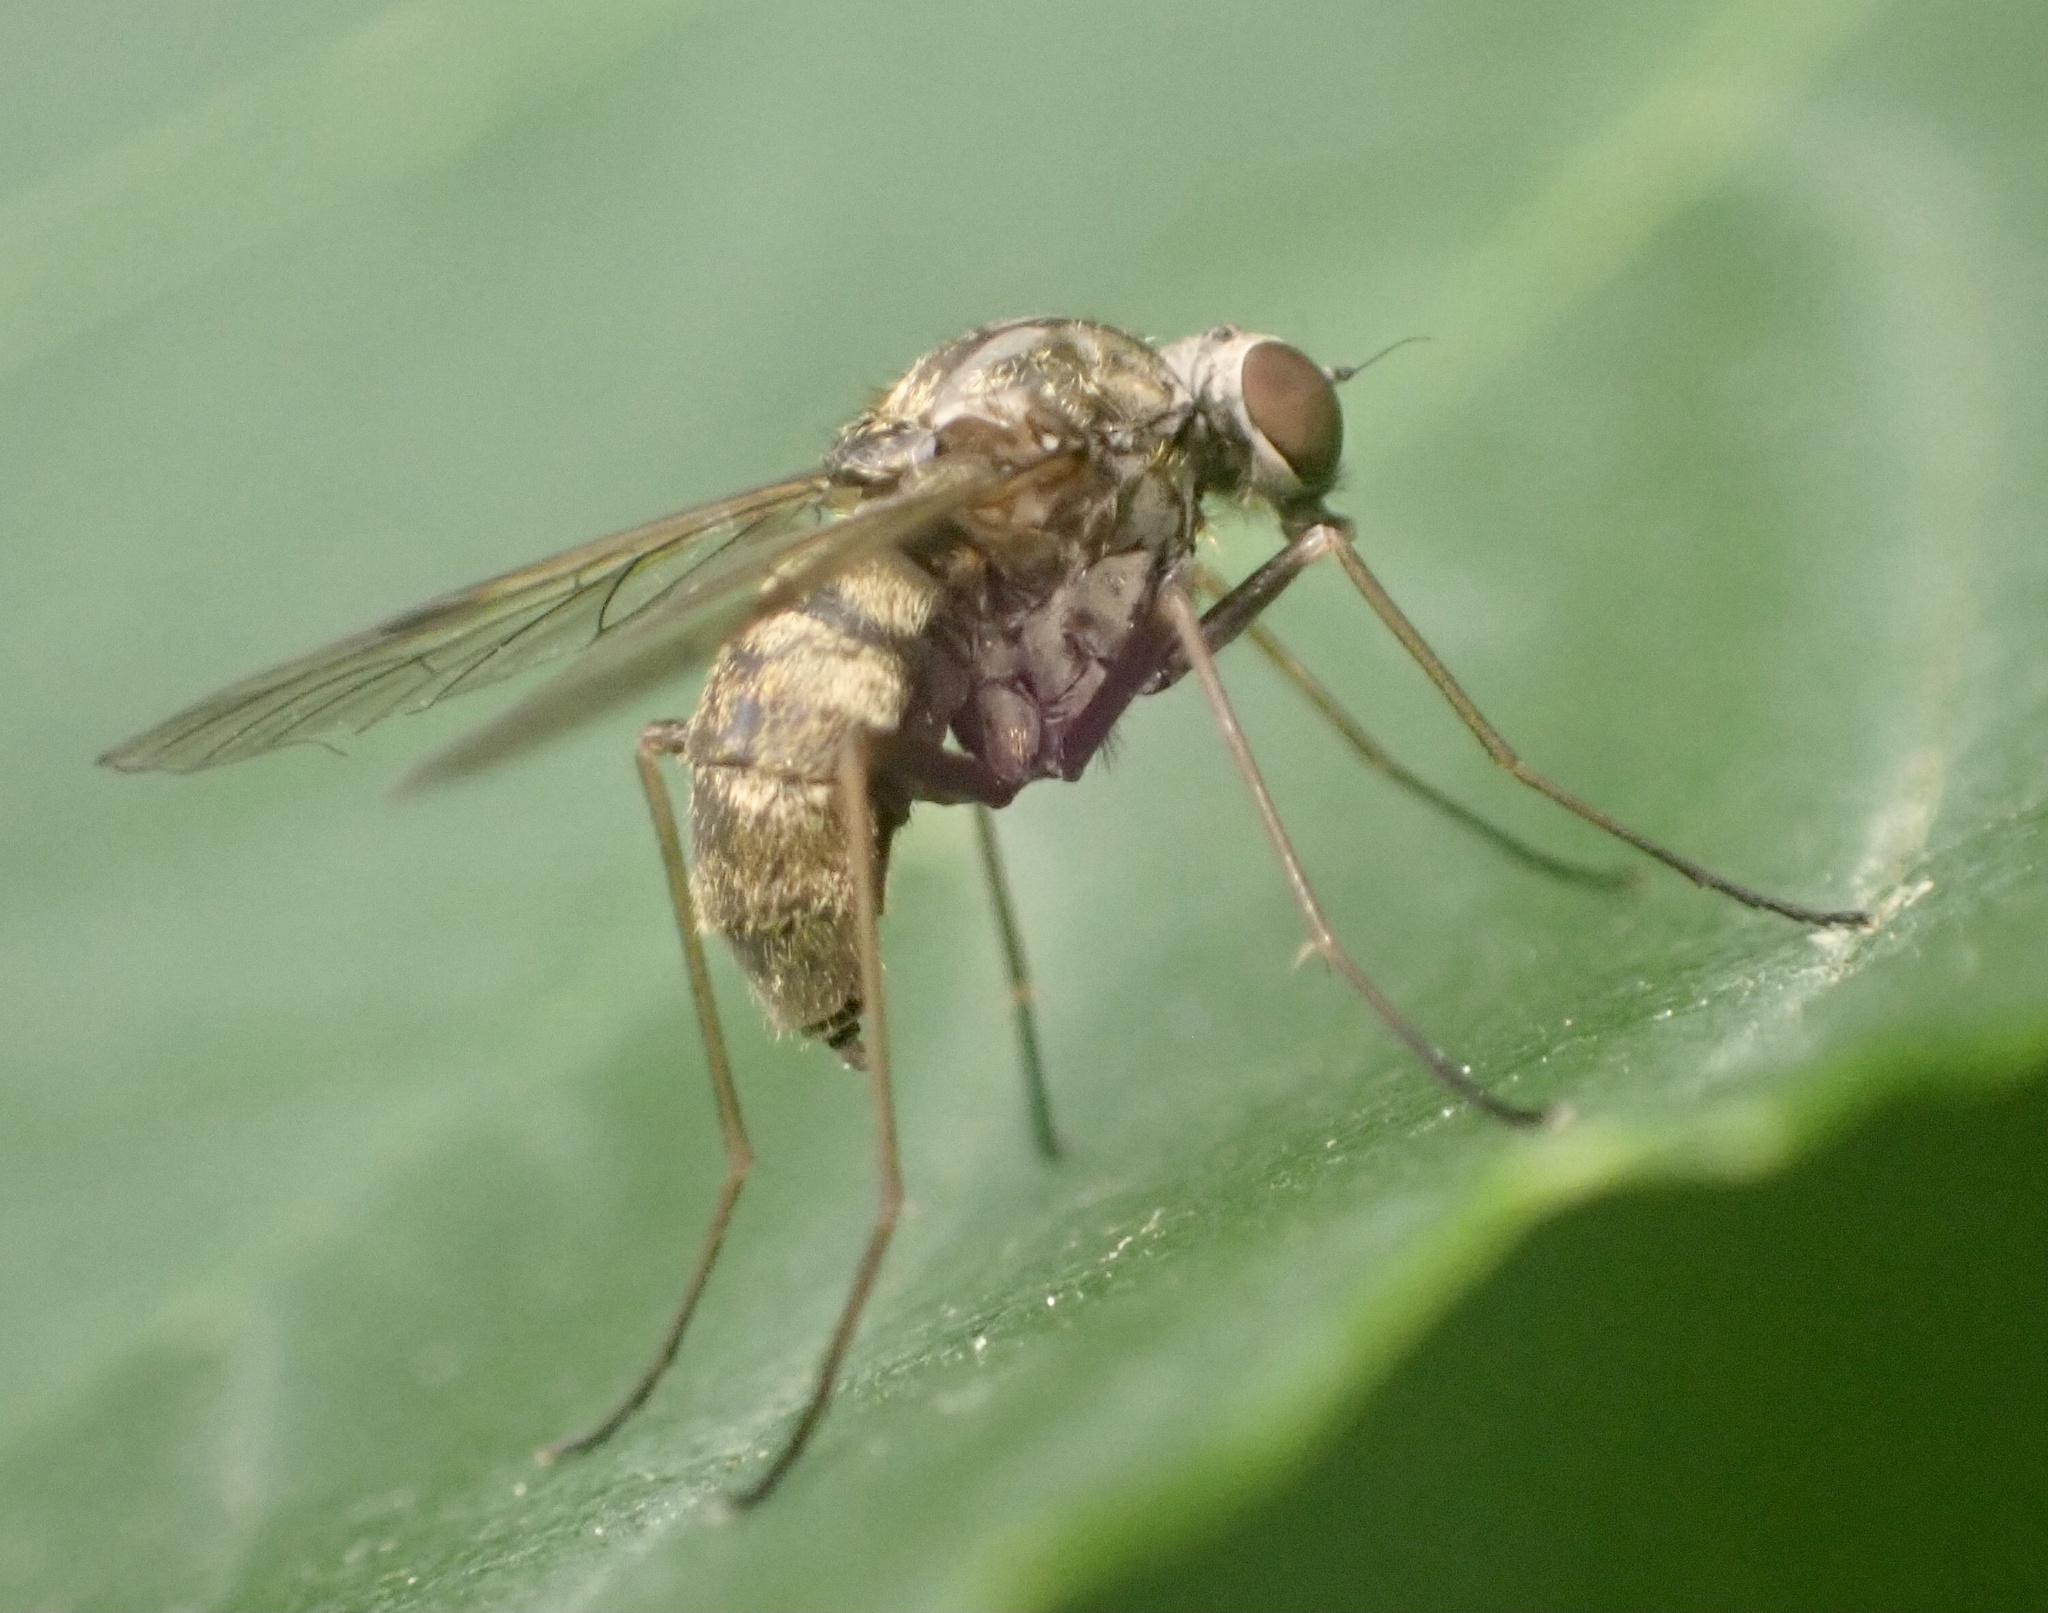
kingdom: Animalia
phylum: Arthropoda
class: Insecta
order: Diptera
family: Rhagionidae
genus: Chrysopilus
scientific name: Chrysopilus cristatus
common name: Black snipefly
